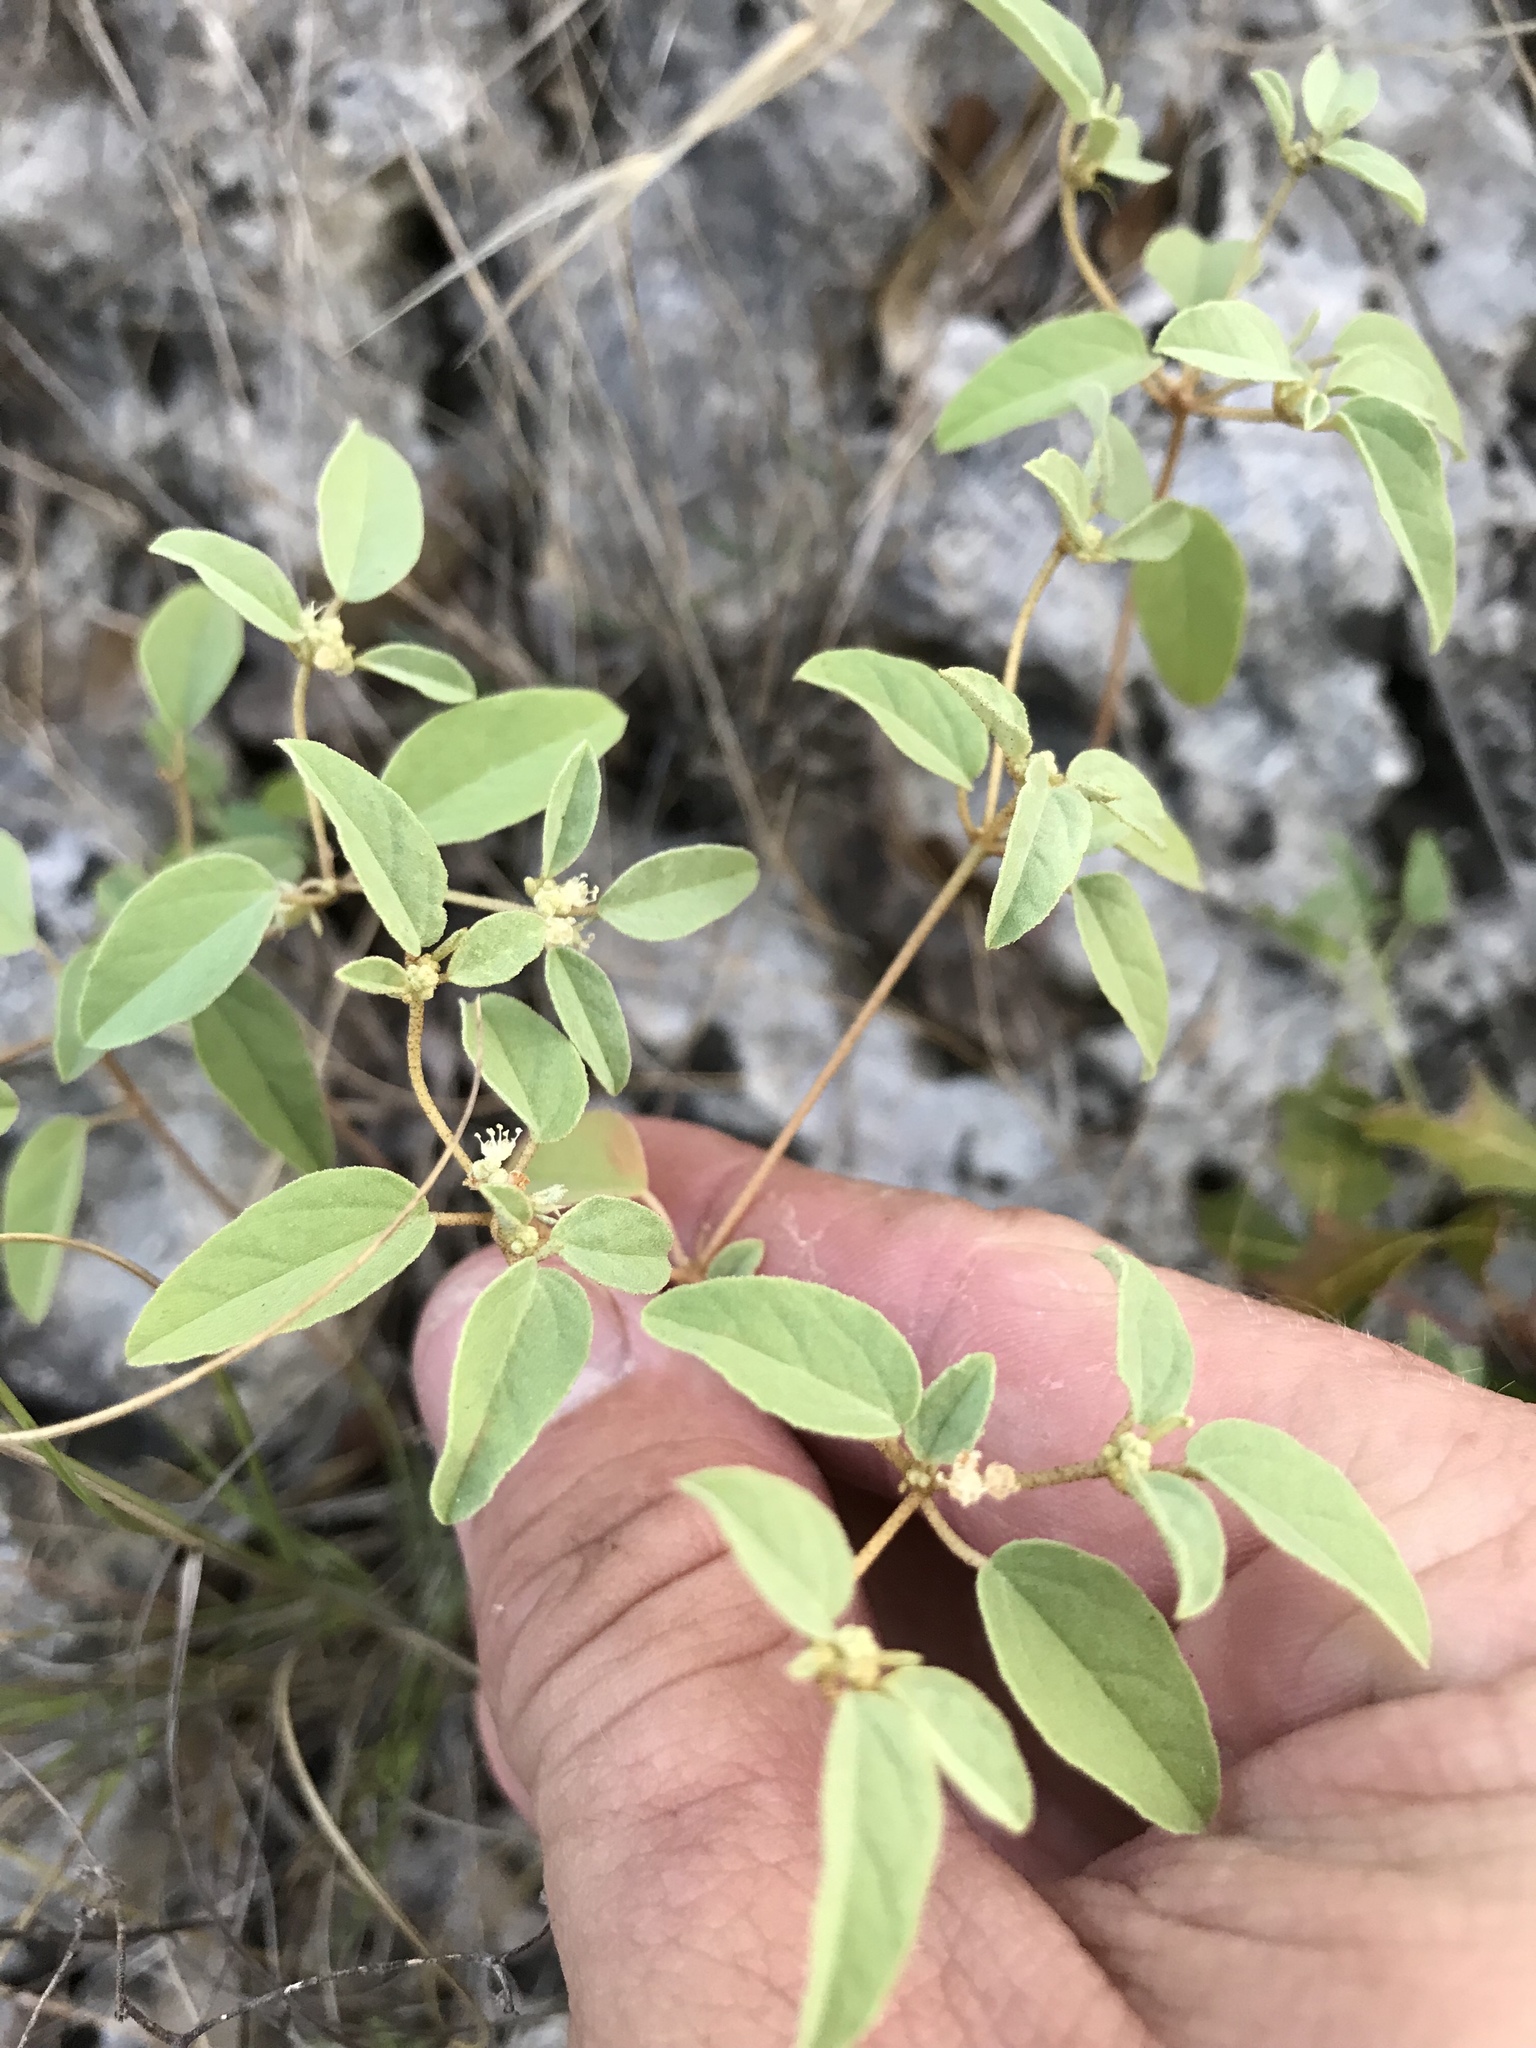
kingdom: Plantae
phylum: Tracheophyta
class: Magnoliopsida
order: Malpighiales
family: Euphorbiaceae
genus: Croton
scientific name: Croton monanthogynus
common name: One-seed croton
